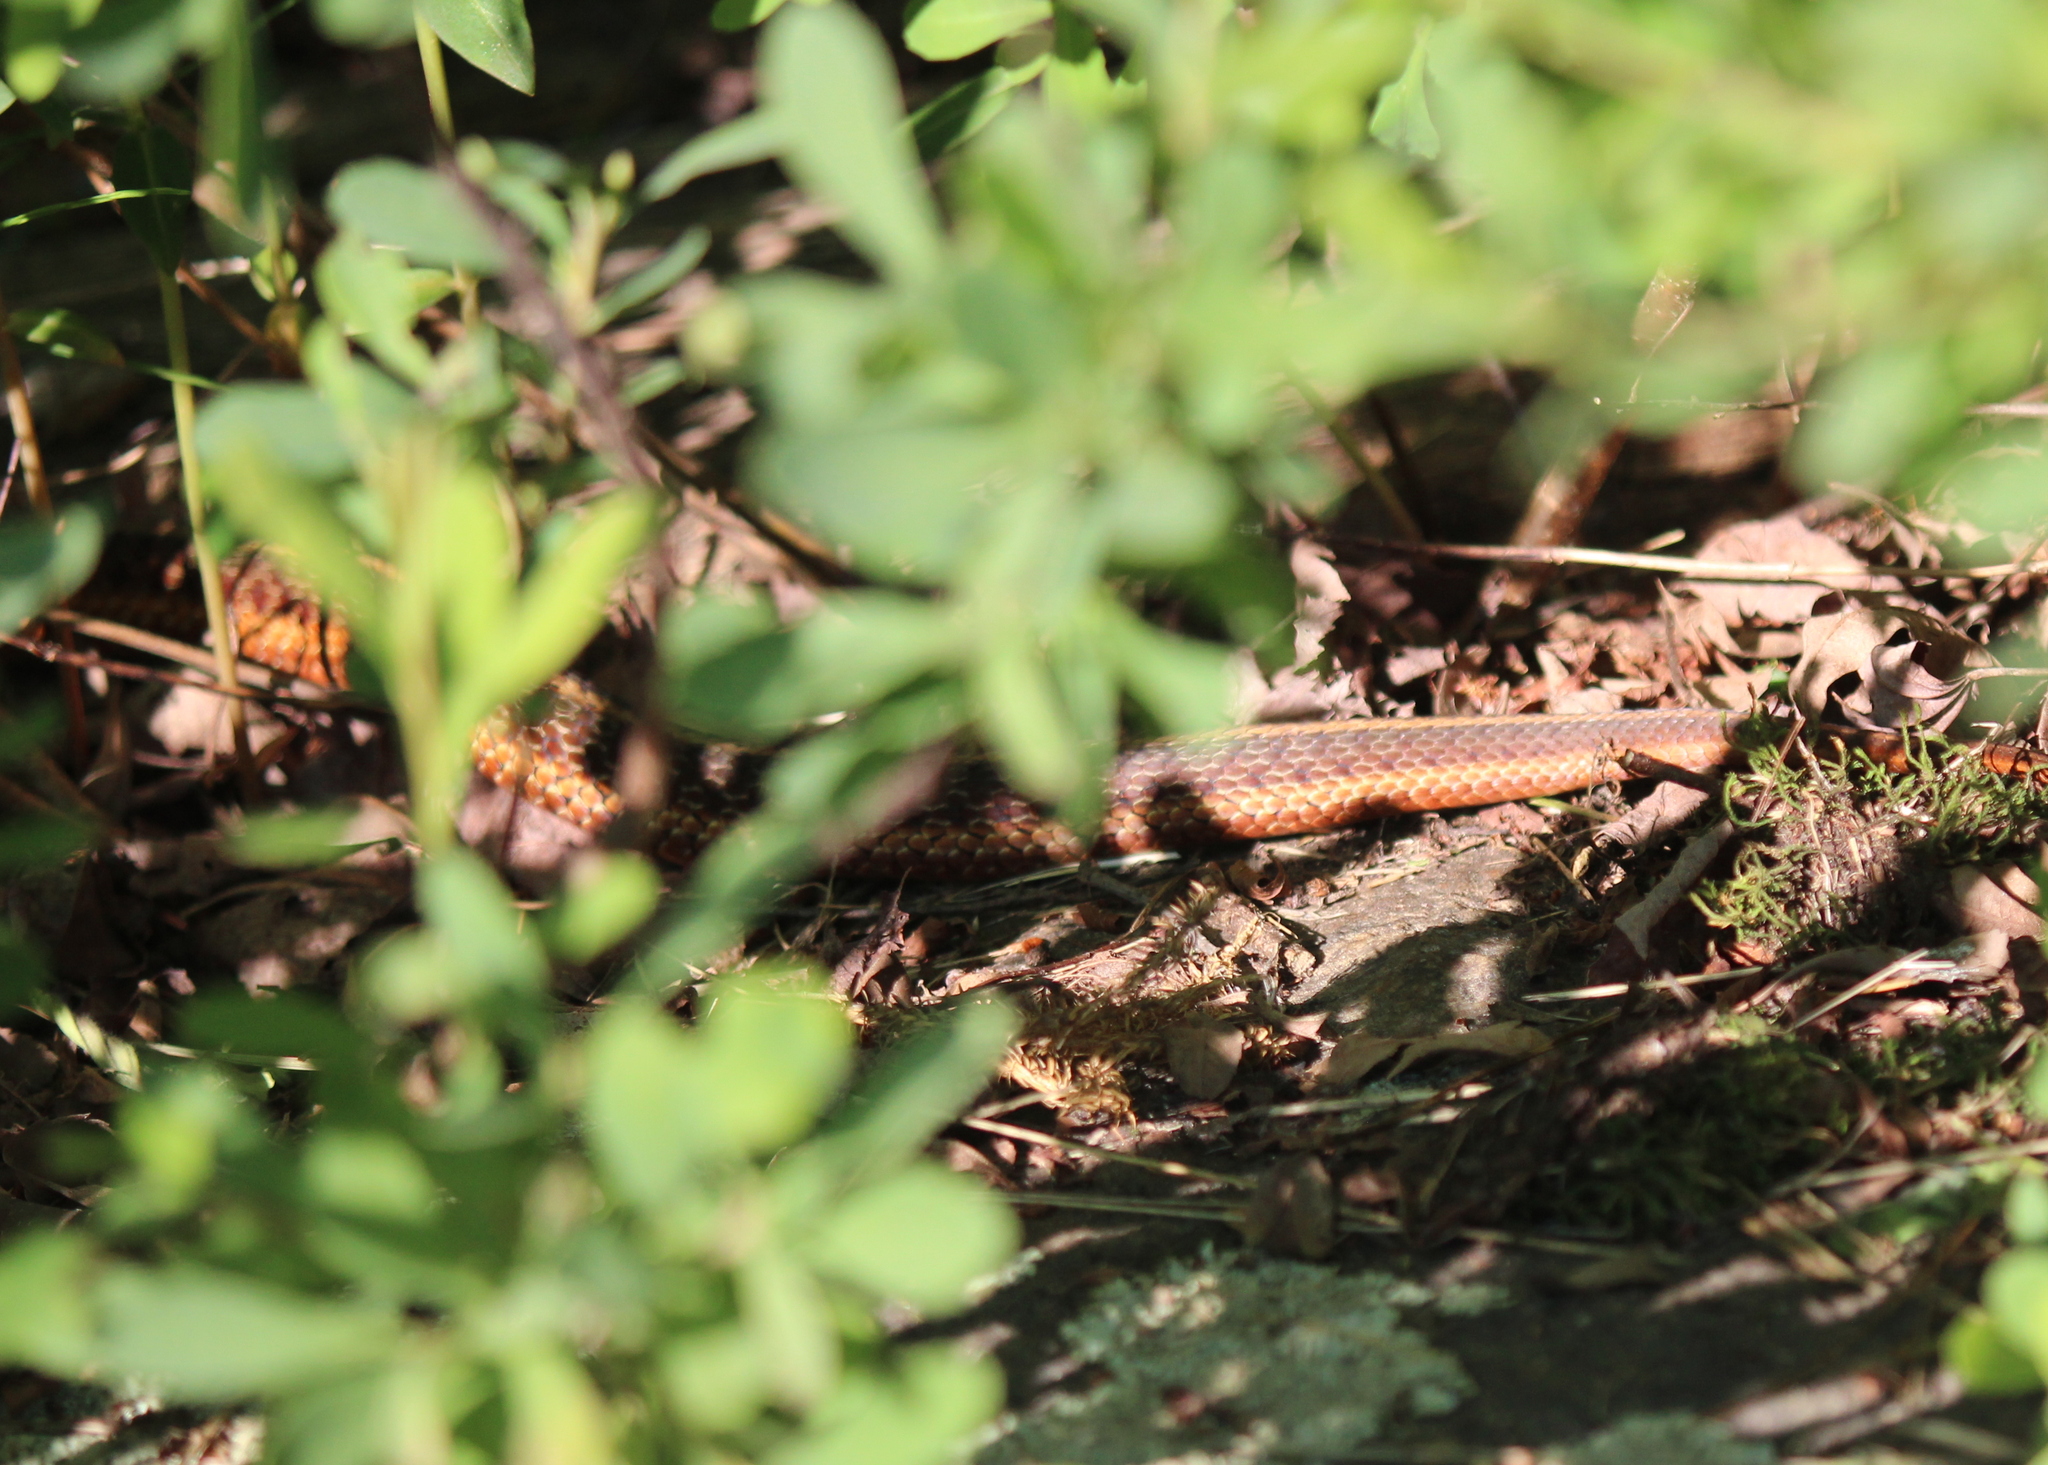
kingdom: Animalia
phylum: Chordata
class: Squamata
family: Colubridae
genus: Thamnophis
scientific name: Thamnophis sirtalis
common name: Common garter snake
